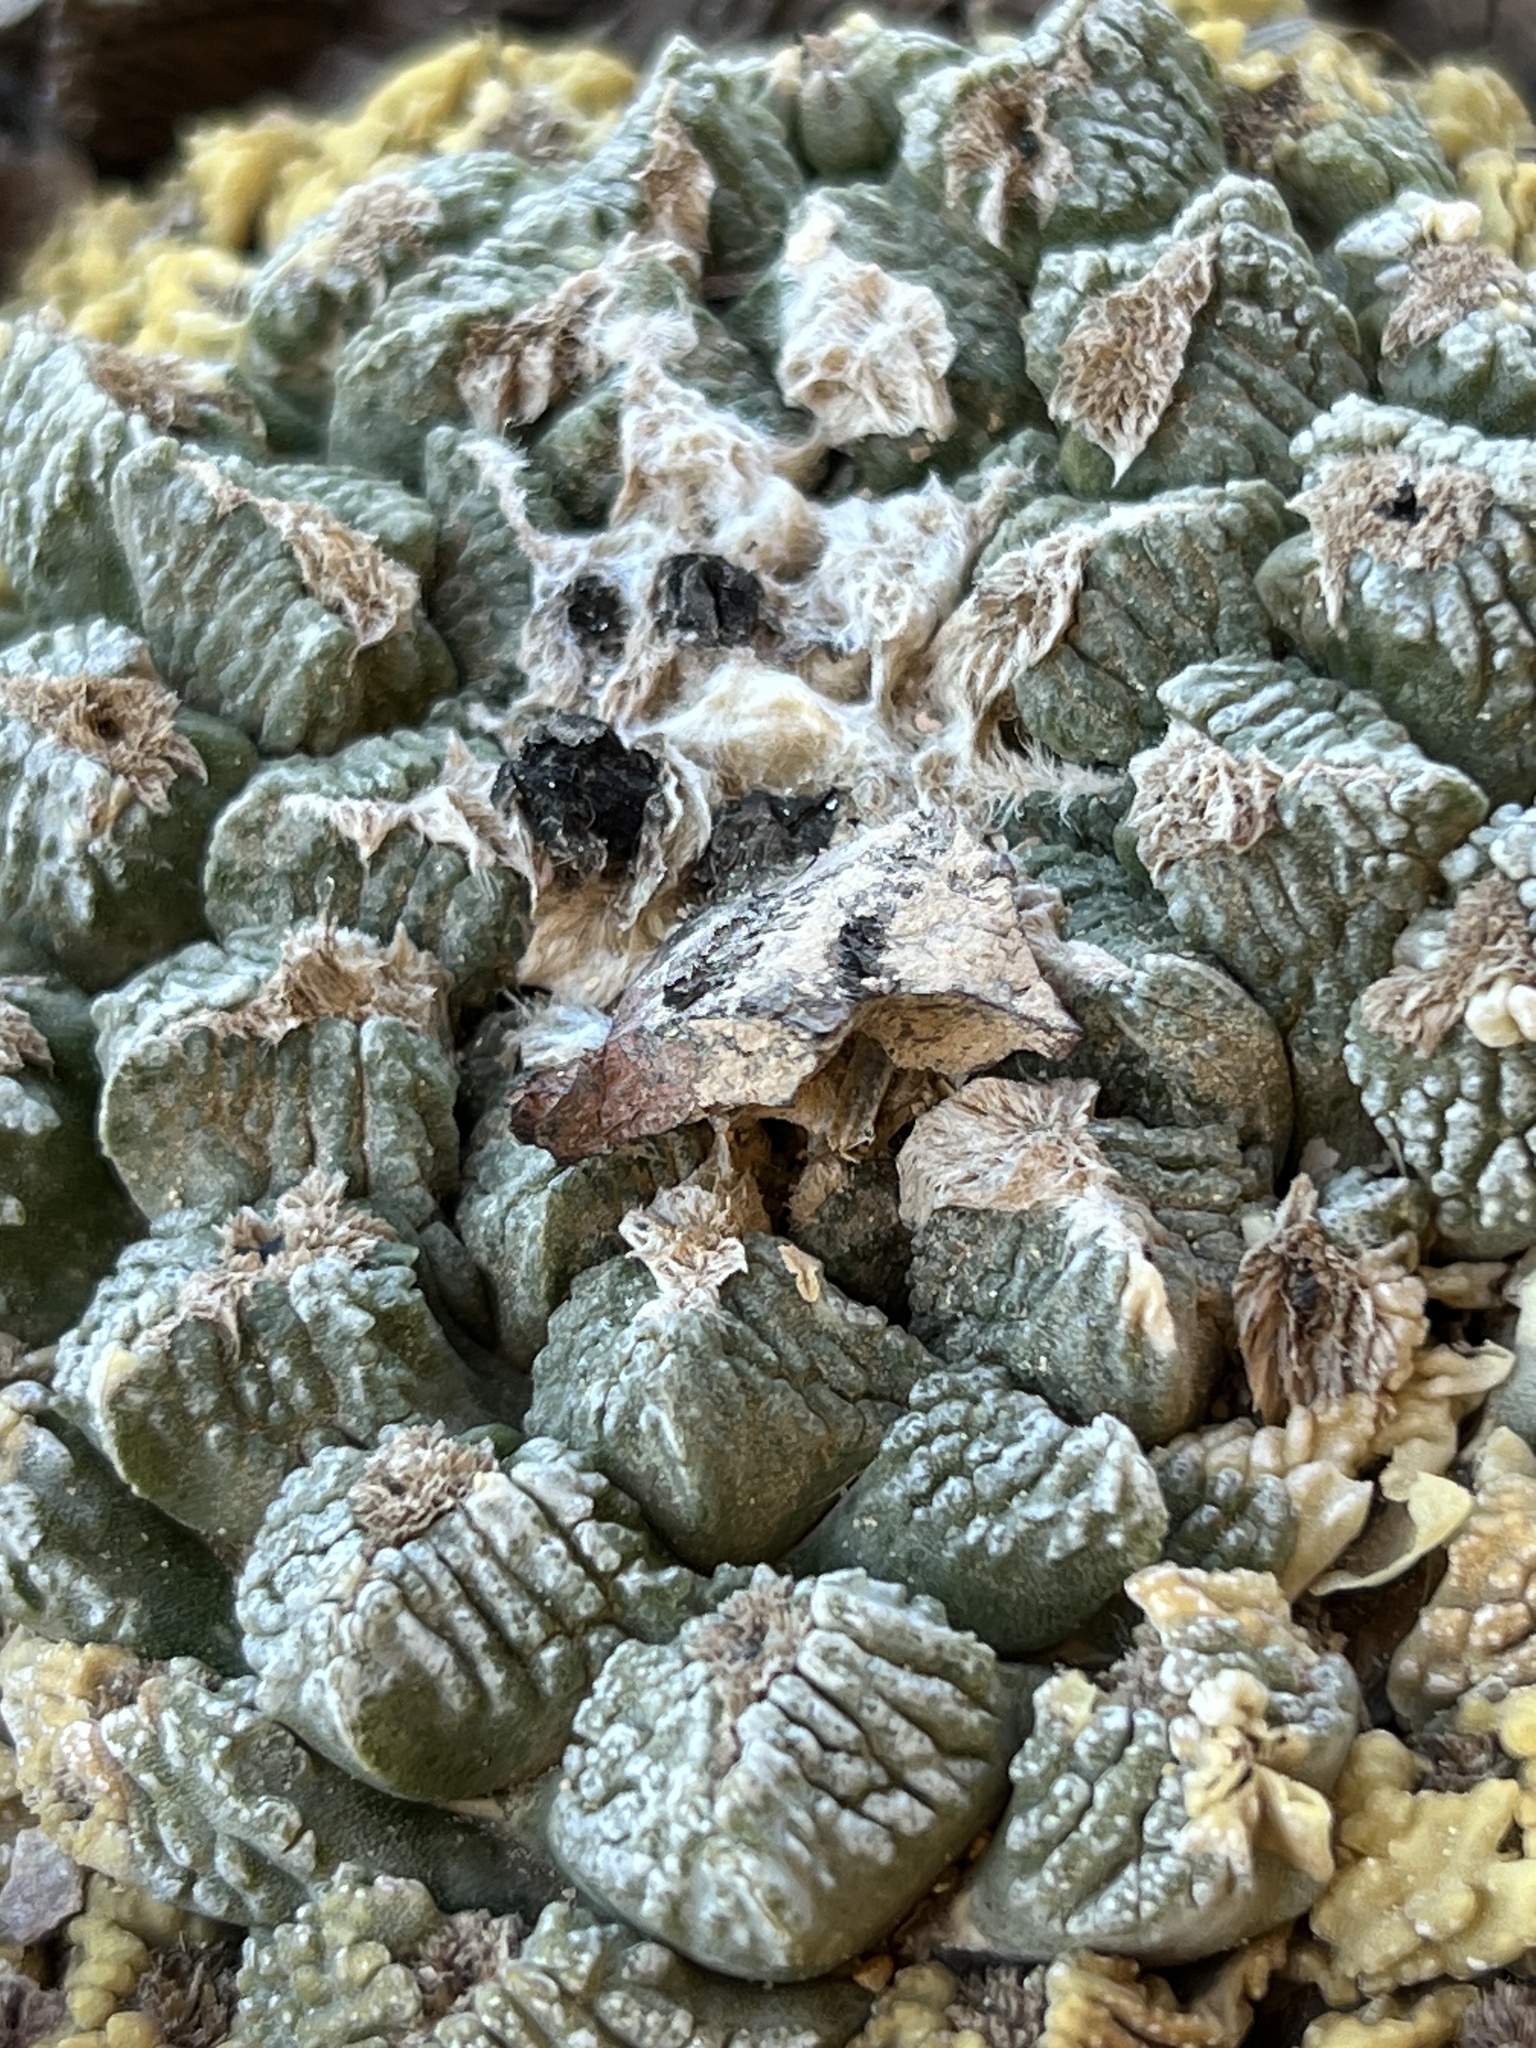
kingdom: Plantae
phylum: Tracheophyta
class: Magnoliopsida
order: Caryophyllales
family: Cactaceae
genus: Ariocarpus
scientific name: Ariocarpus fissuratus
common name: Chautle-living rock
